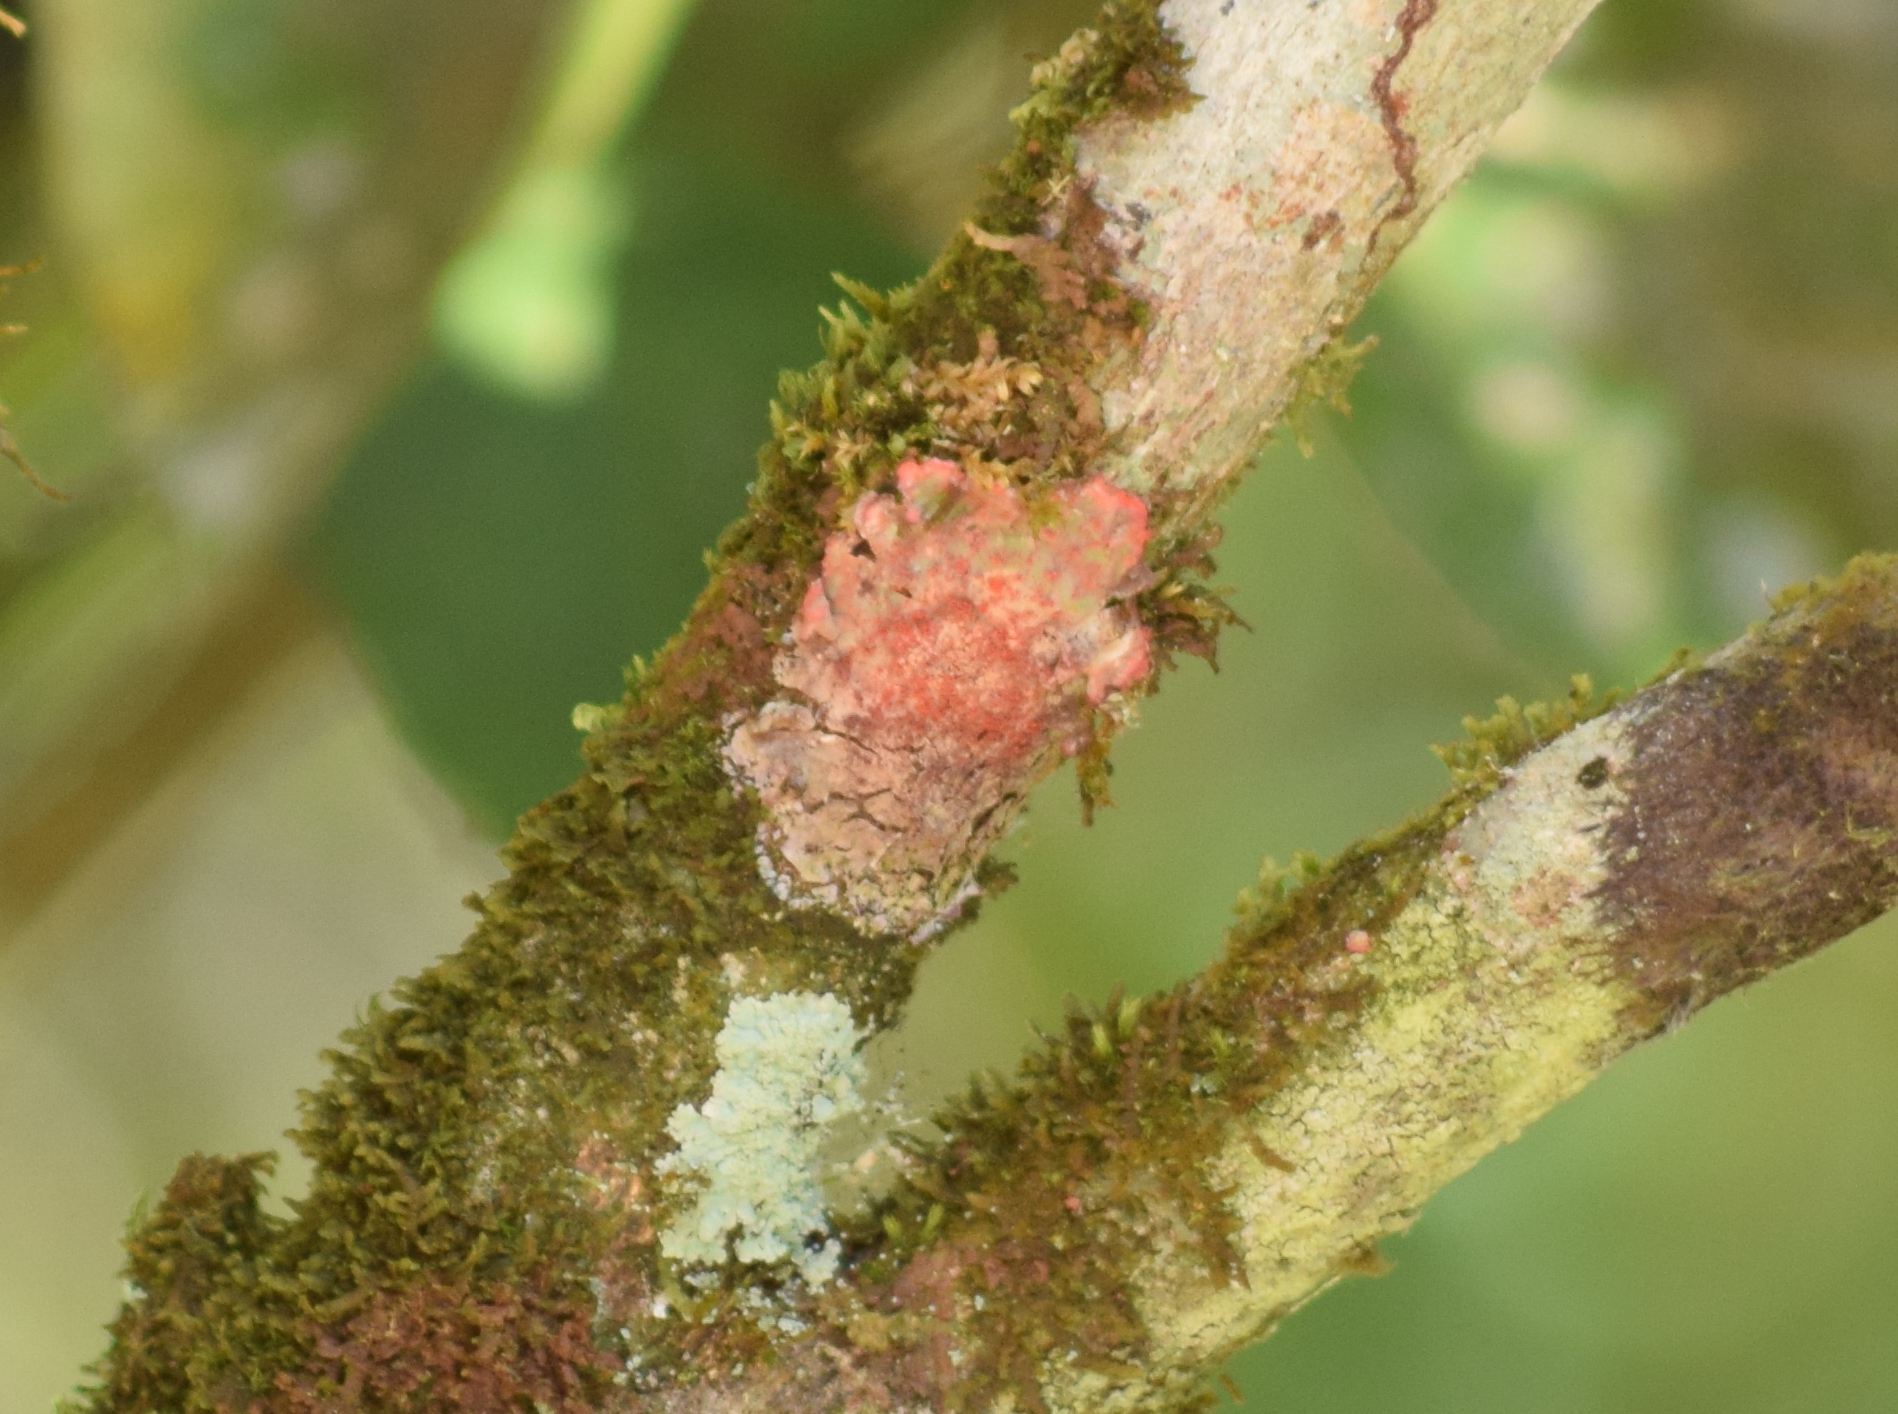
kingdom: Fungi
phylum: Ascomycota
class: Arthoniomycetes
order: Arthoniales
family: Arthoniaceae
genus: Herpothallon
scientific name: Herpothallon rubrocinctum
